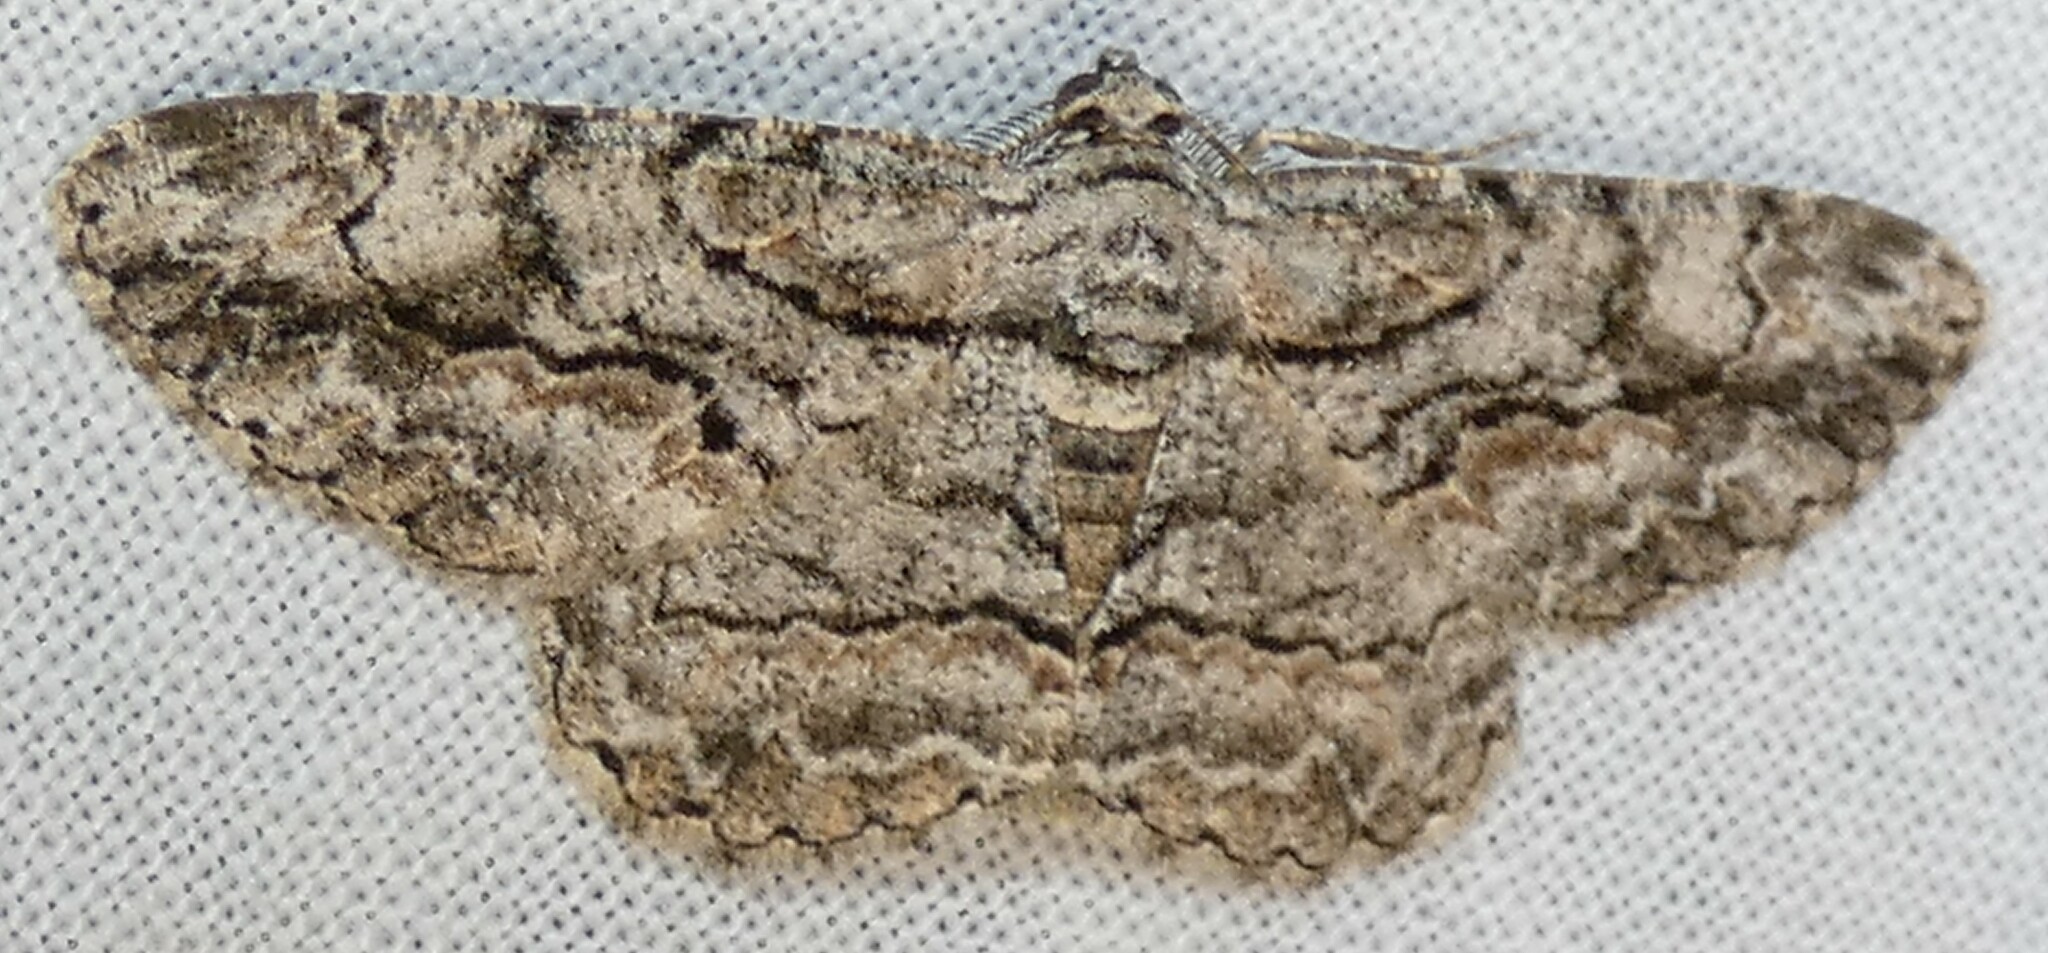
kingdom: Animalia
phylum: Arthropoda
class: Insecta
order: Lepidoptera
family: Geometridae
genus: Anavitrinella
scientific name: Anavitrinella pampinaria
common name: Common gray
